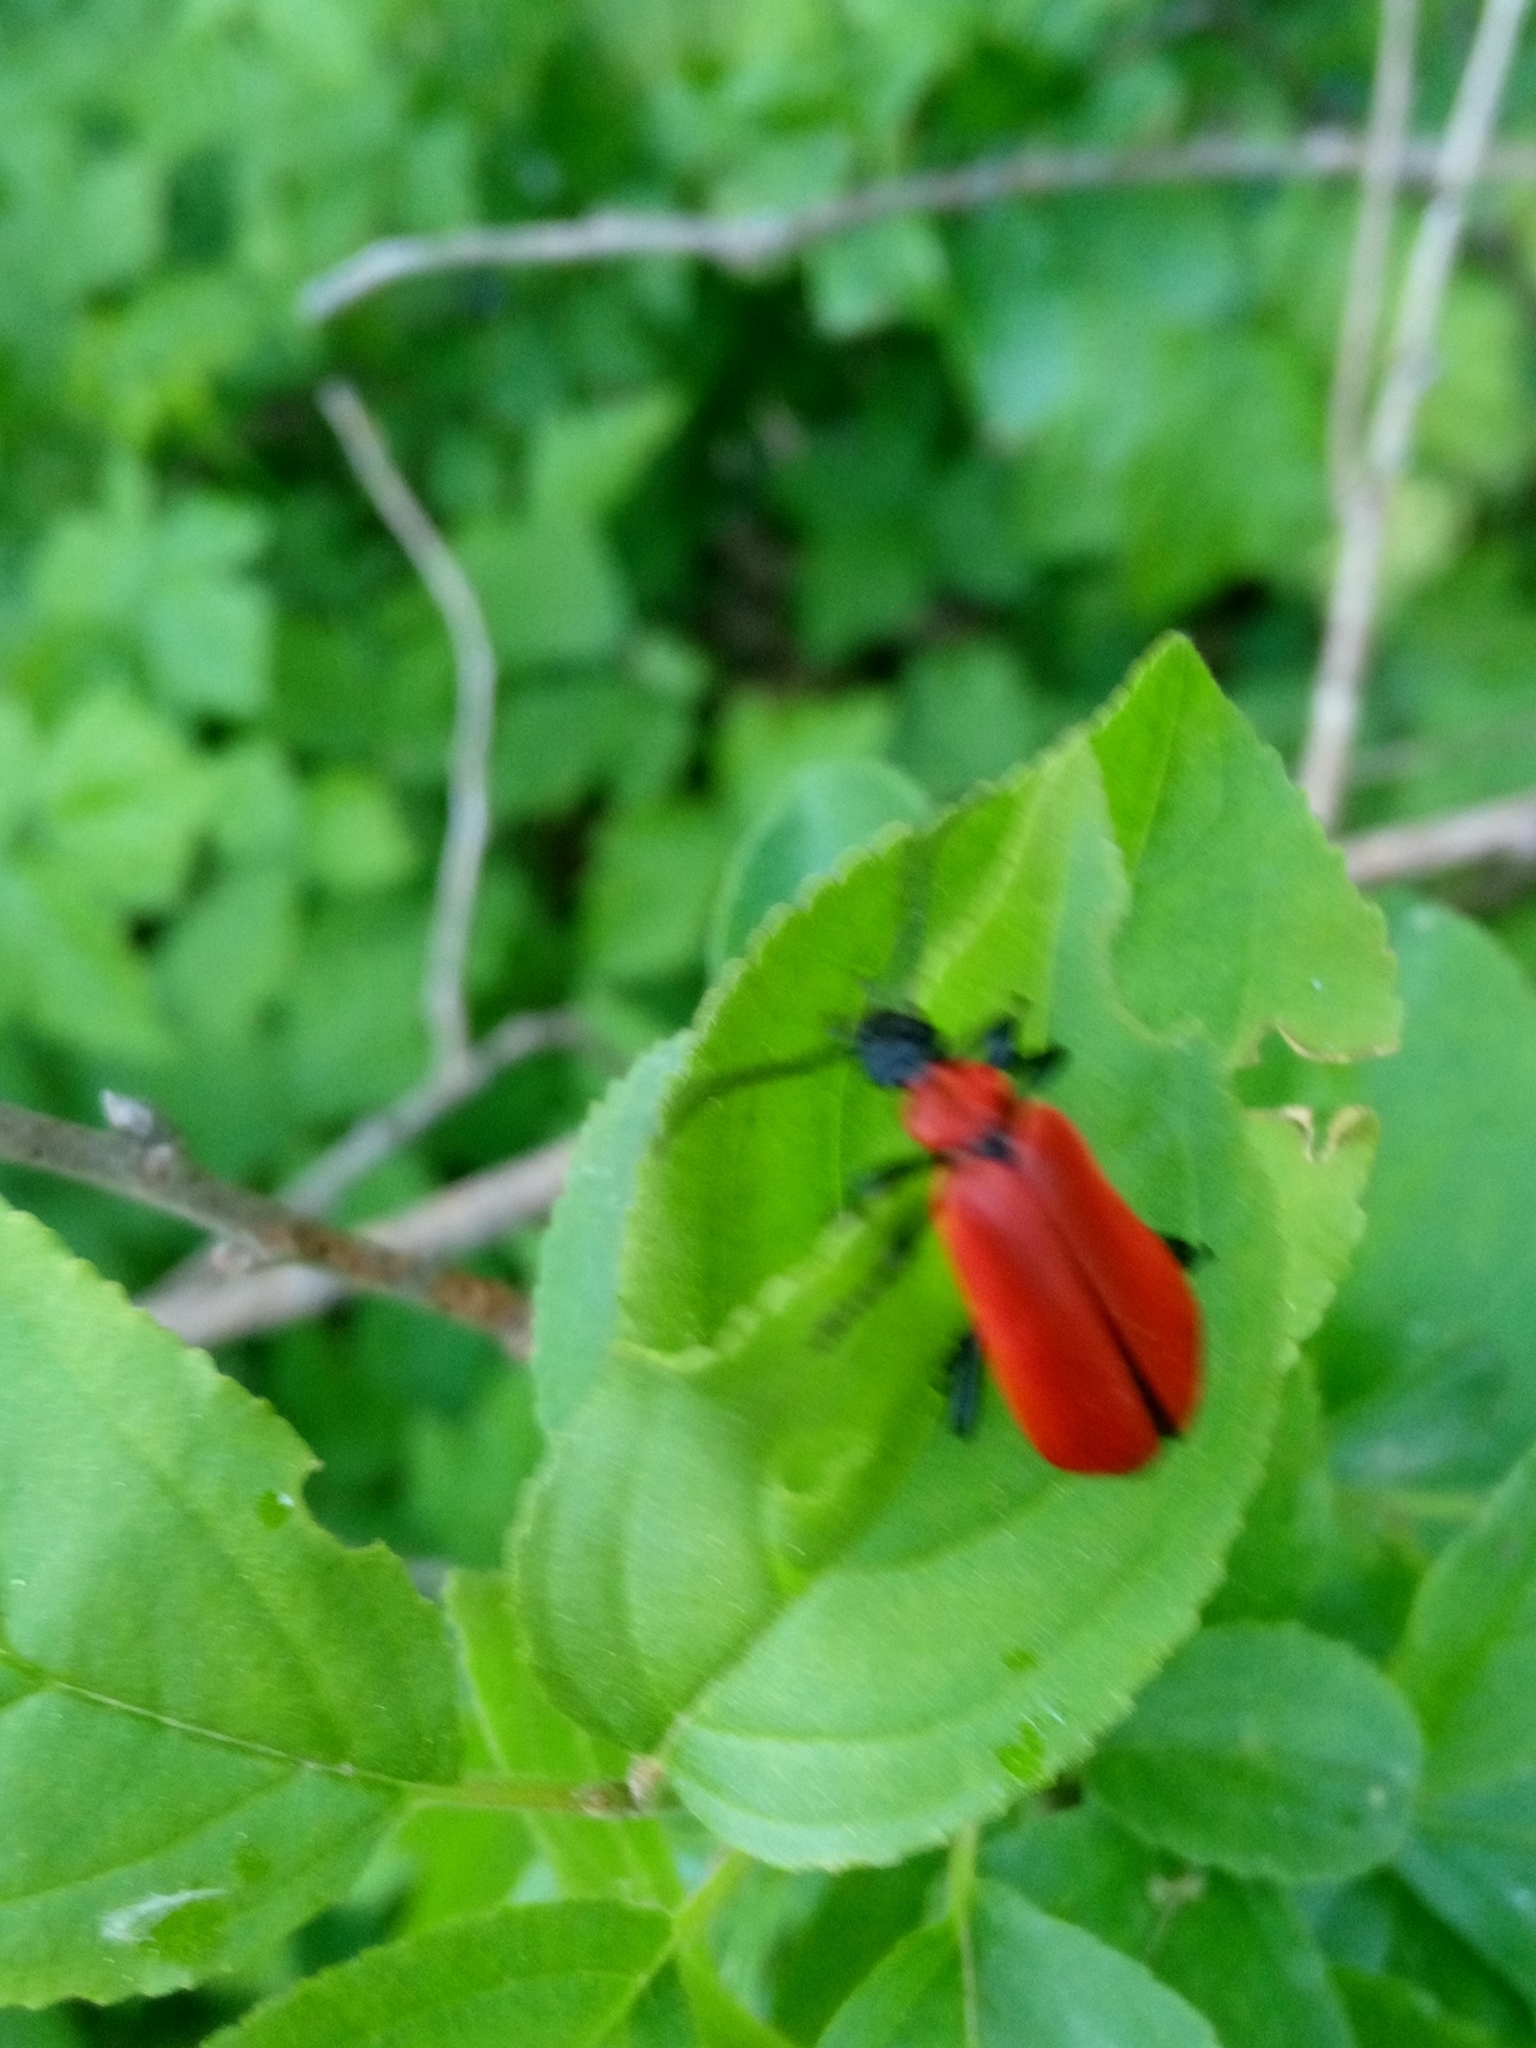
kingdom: Animalia
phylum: Arthropoda
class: Insecta
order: Coleoptera
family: Pyrochroidae
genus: Pyrochroa
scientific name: Pyrochroa coccinea
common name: Black-headed cardinal beetle
